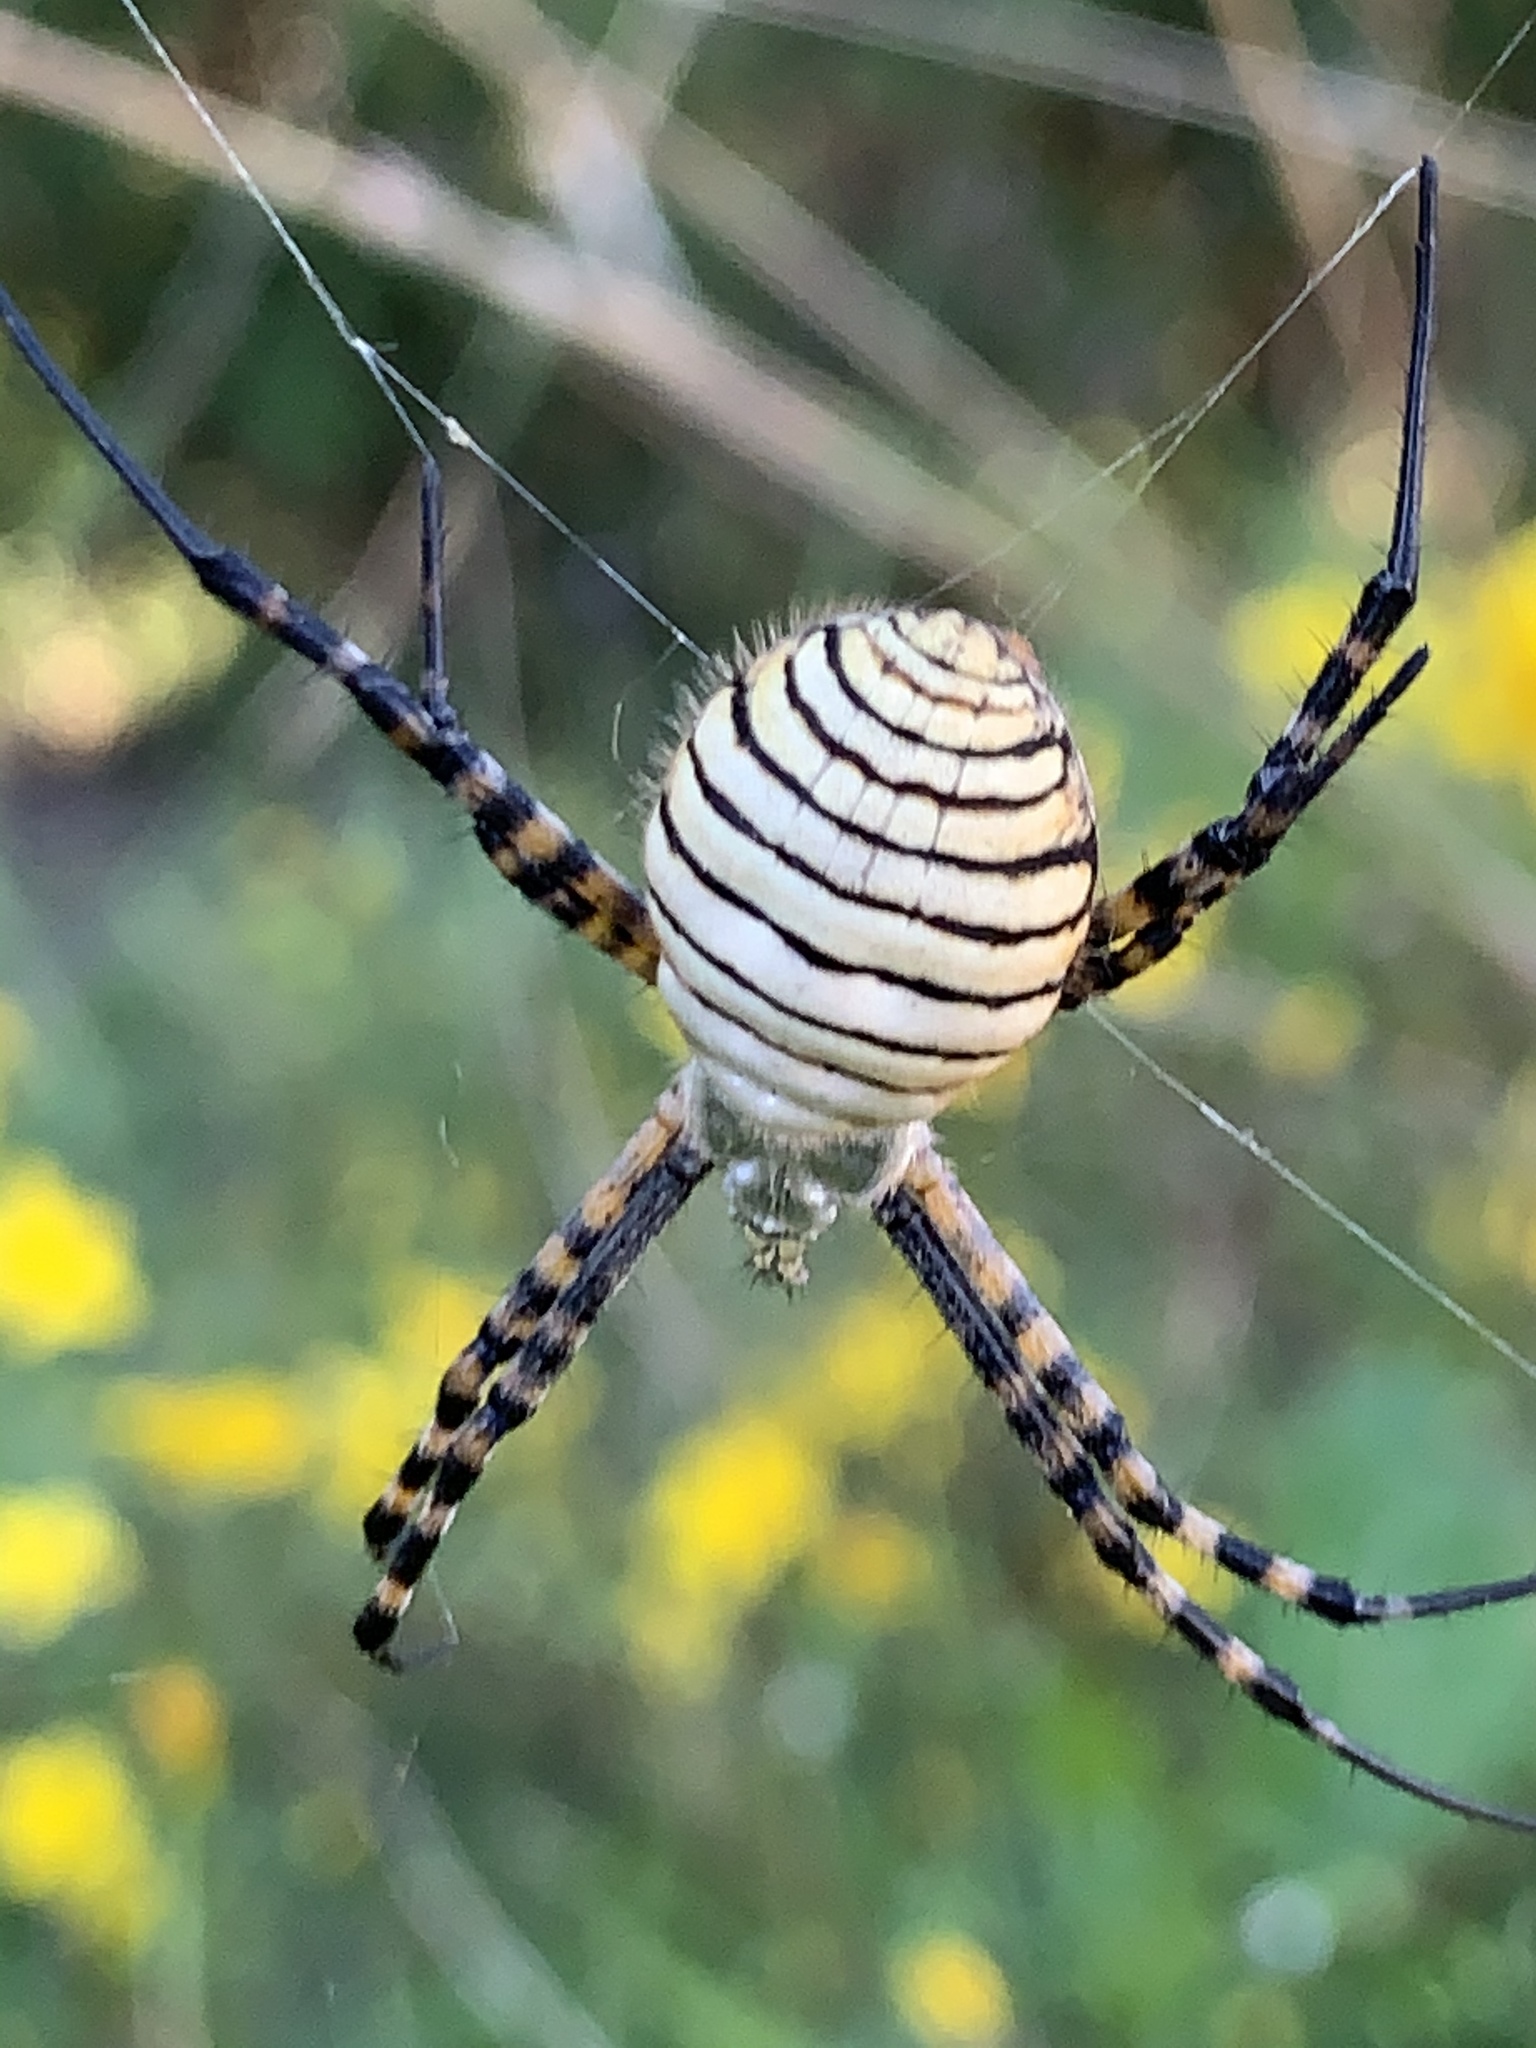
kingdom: Animalia
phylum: Arthropoda
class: Arachnida
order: Araneae
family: Araneidae
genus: Argiope
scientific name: Argiope trifasciata
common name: Banded garden spider
